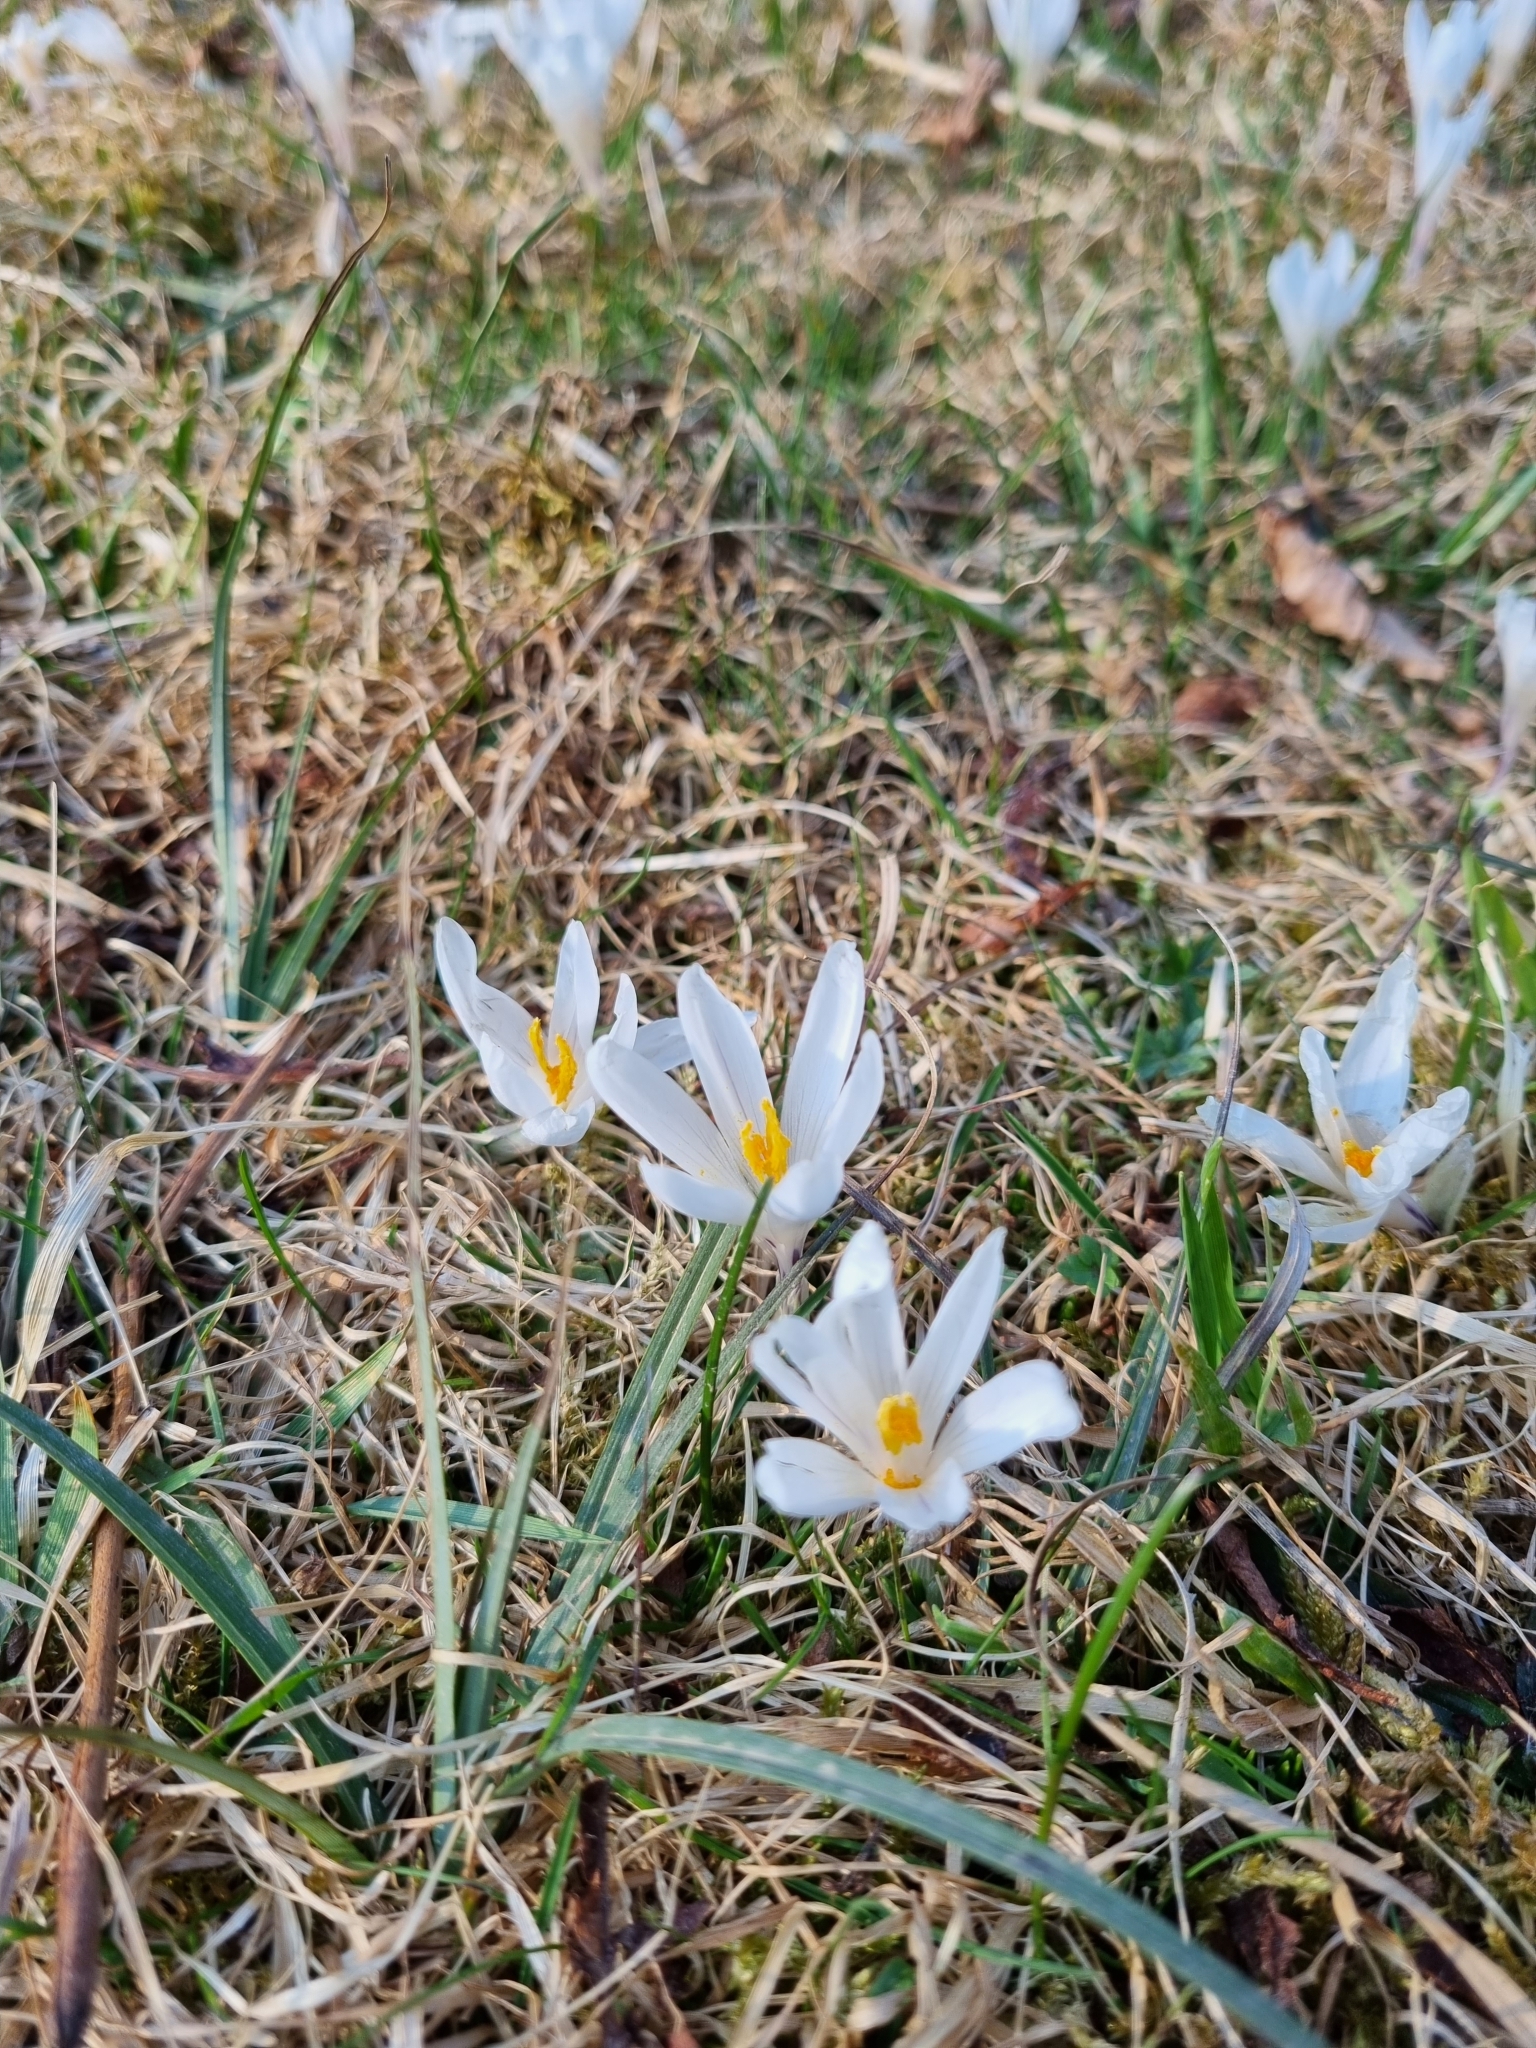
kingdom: Plantae
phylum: Tracheophyta
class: Liliopsida
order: Asparagales
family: Iridaceae
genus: Crocus
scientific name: Crocus vernus
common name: Spring crocus
